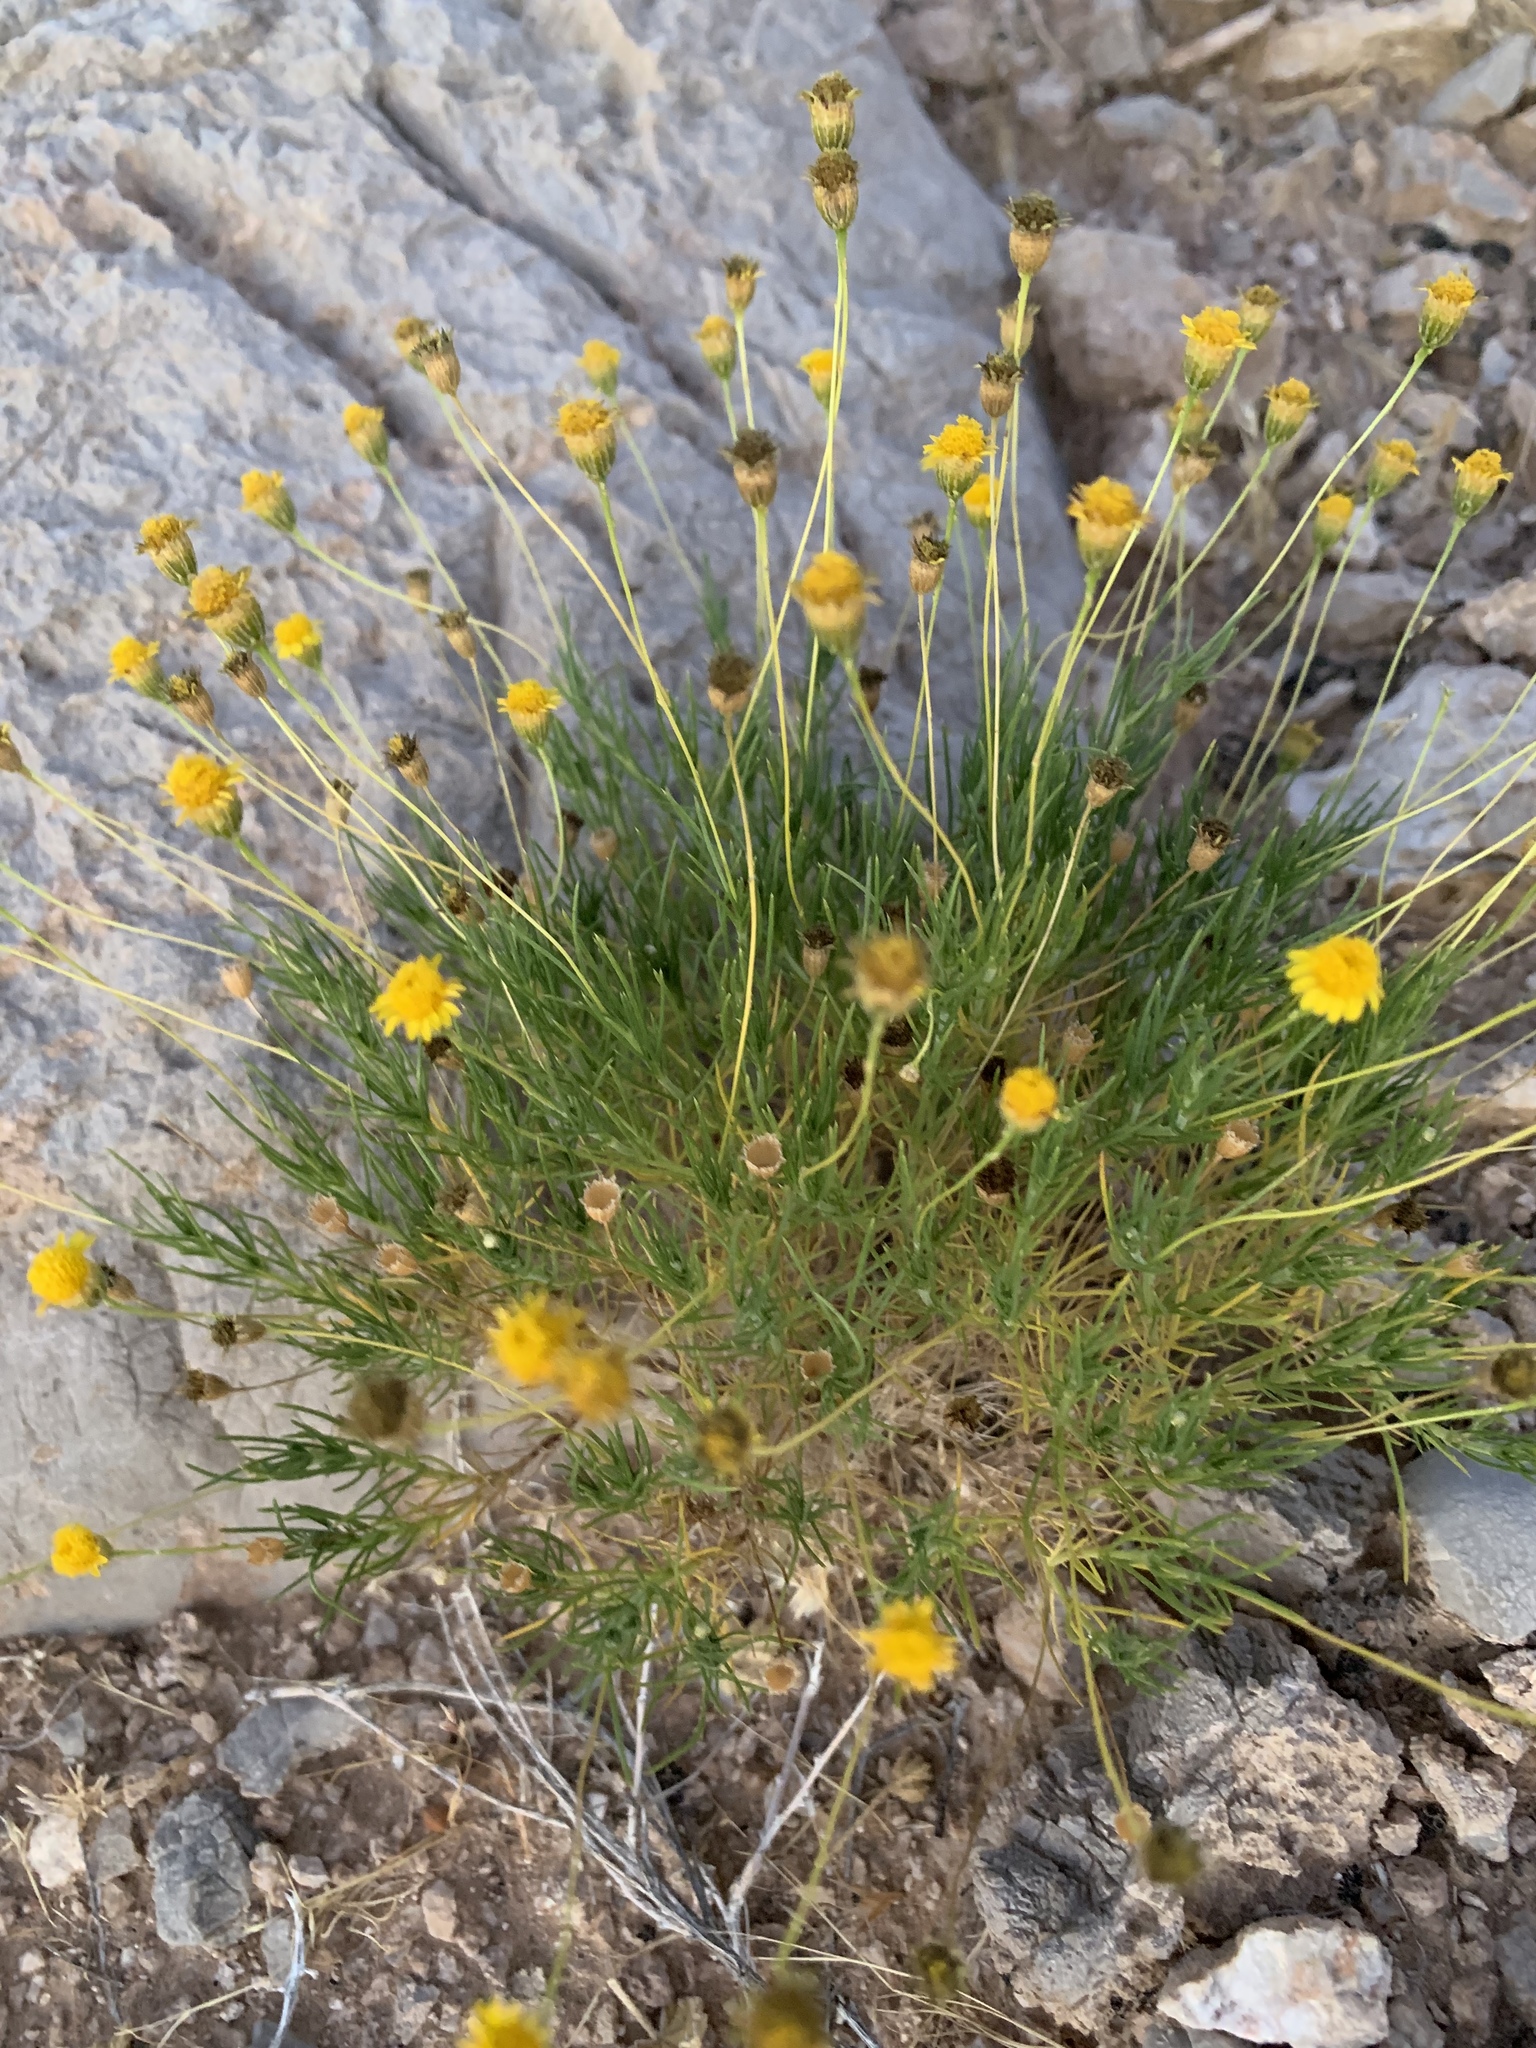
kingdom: Plantae
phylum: Tracheophyta
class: Magnoliopsida
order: Asterales
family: Asteraceae
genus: Thymophylla
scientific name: Thymophylla pentachaeta
